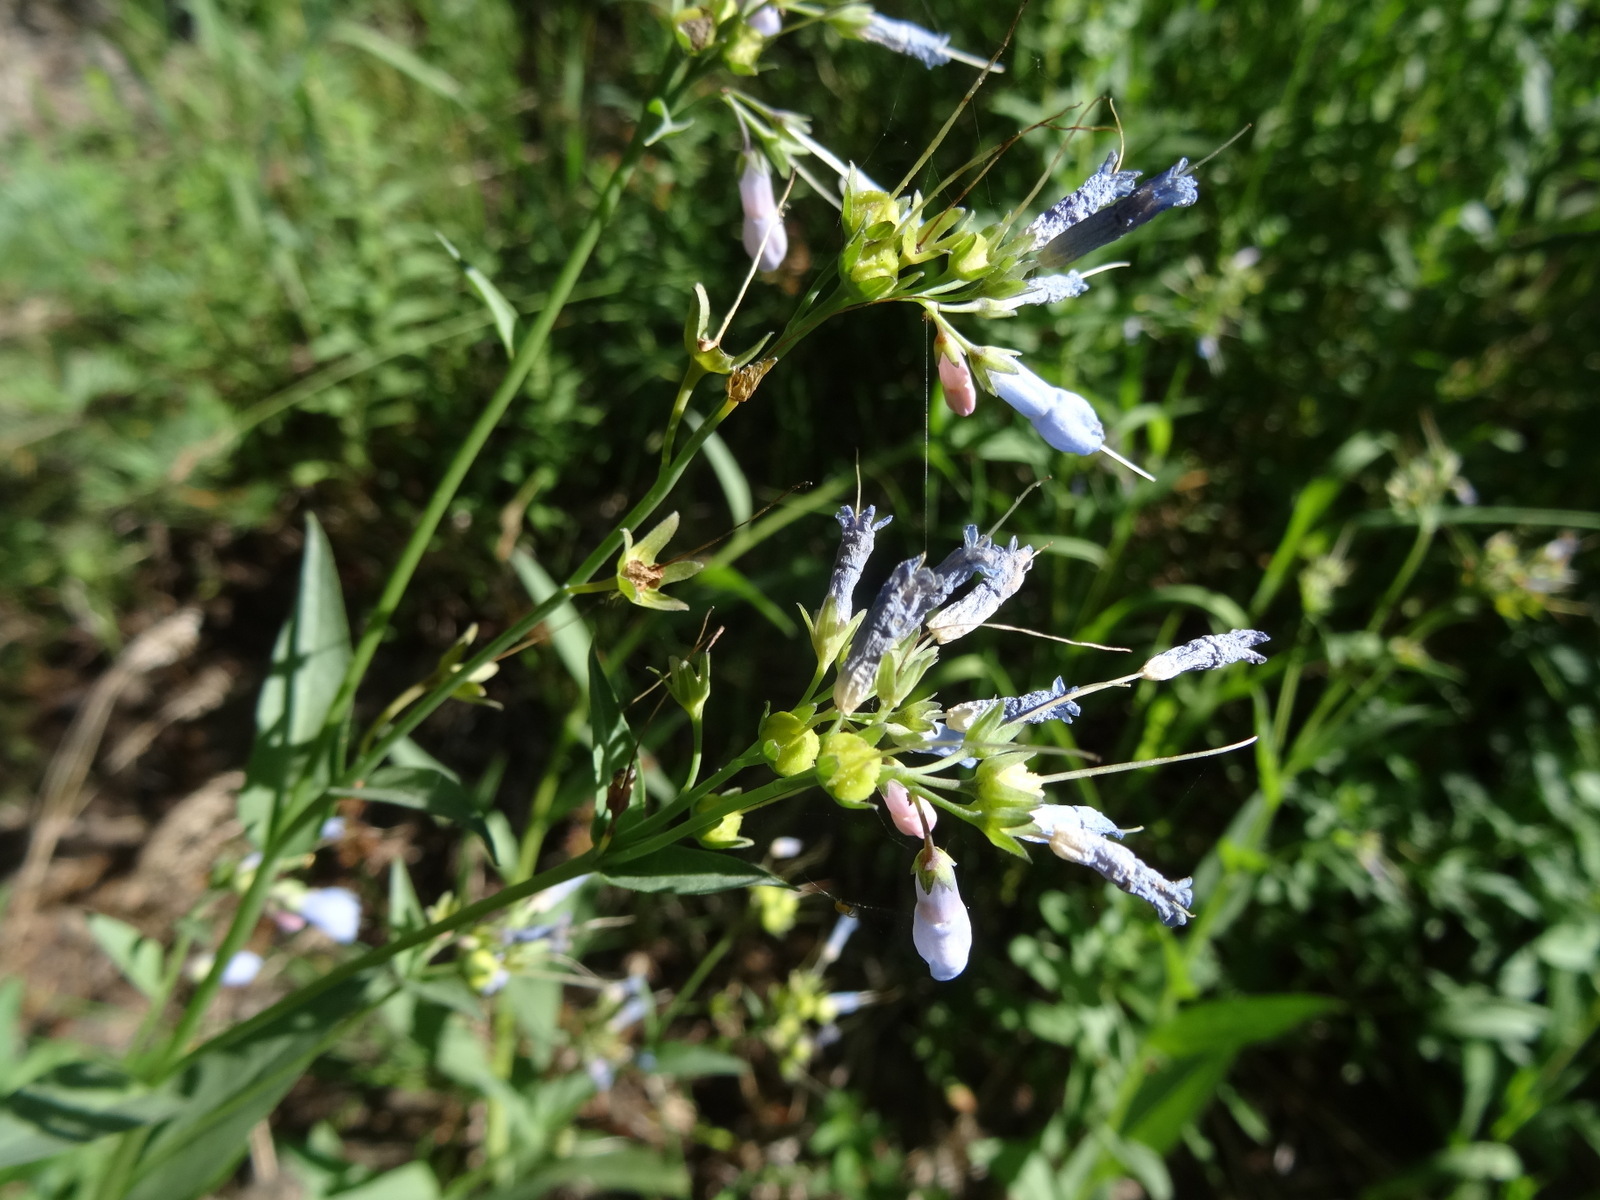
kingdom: Plantae
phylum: Tracheophyta
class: Magnoliopsida
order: Boraginales
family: Boraginaceae
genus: Mertensia
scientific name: Mertensia ciliata
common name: Tall chiming-bells
